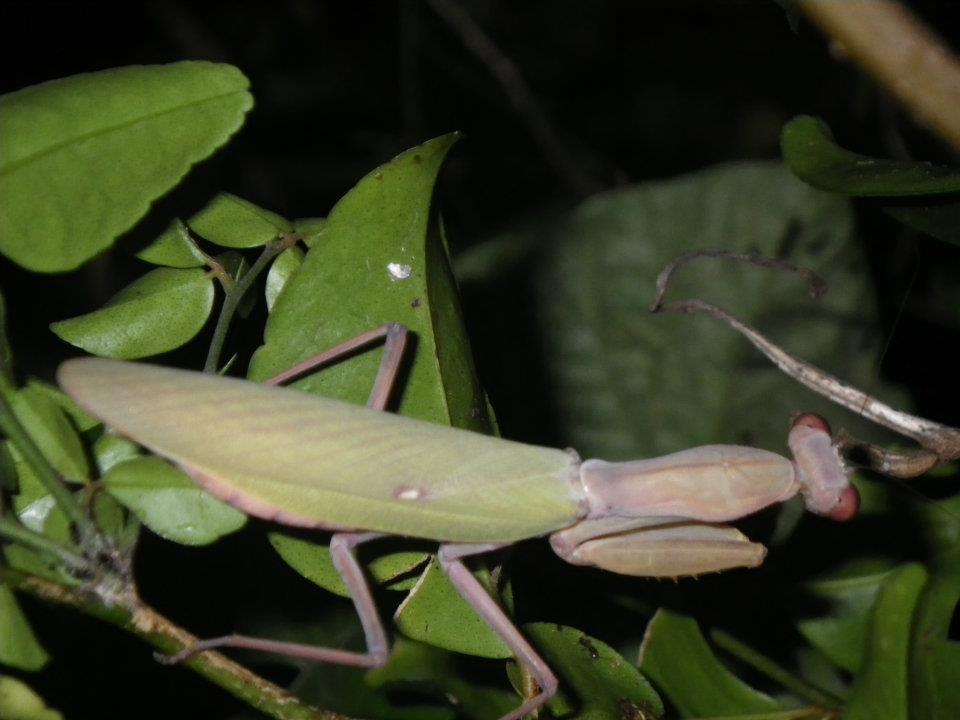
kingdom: Animalia
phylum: Arthropoda
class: Insecta
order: Mantodea
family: Mantidae
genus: Hierodula
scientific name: Hierodula patellifera
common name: Asian mantis
